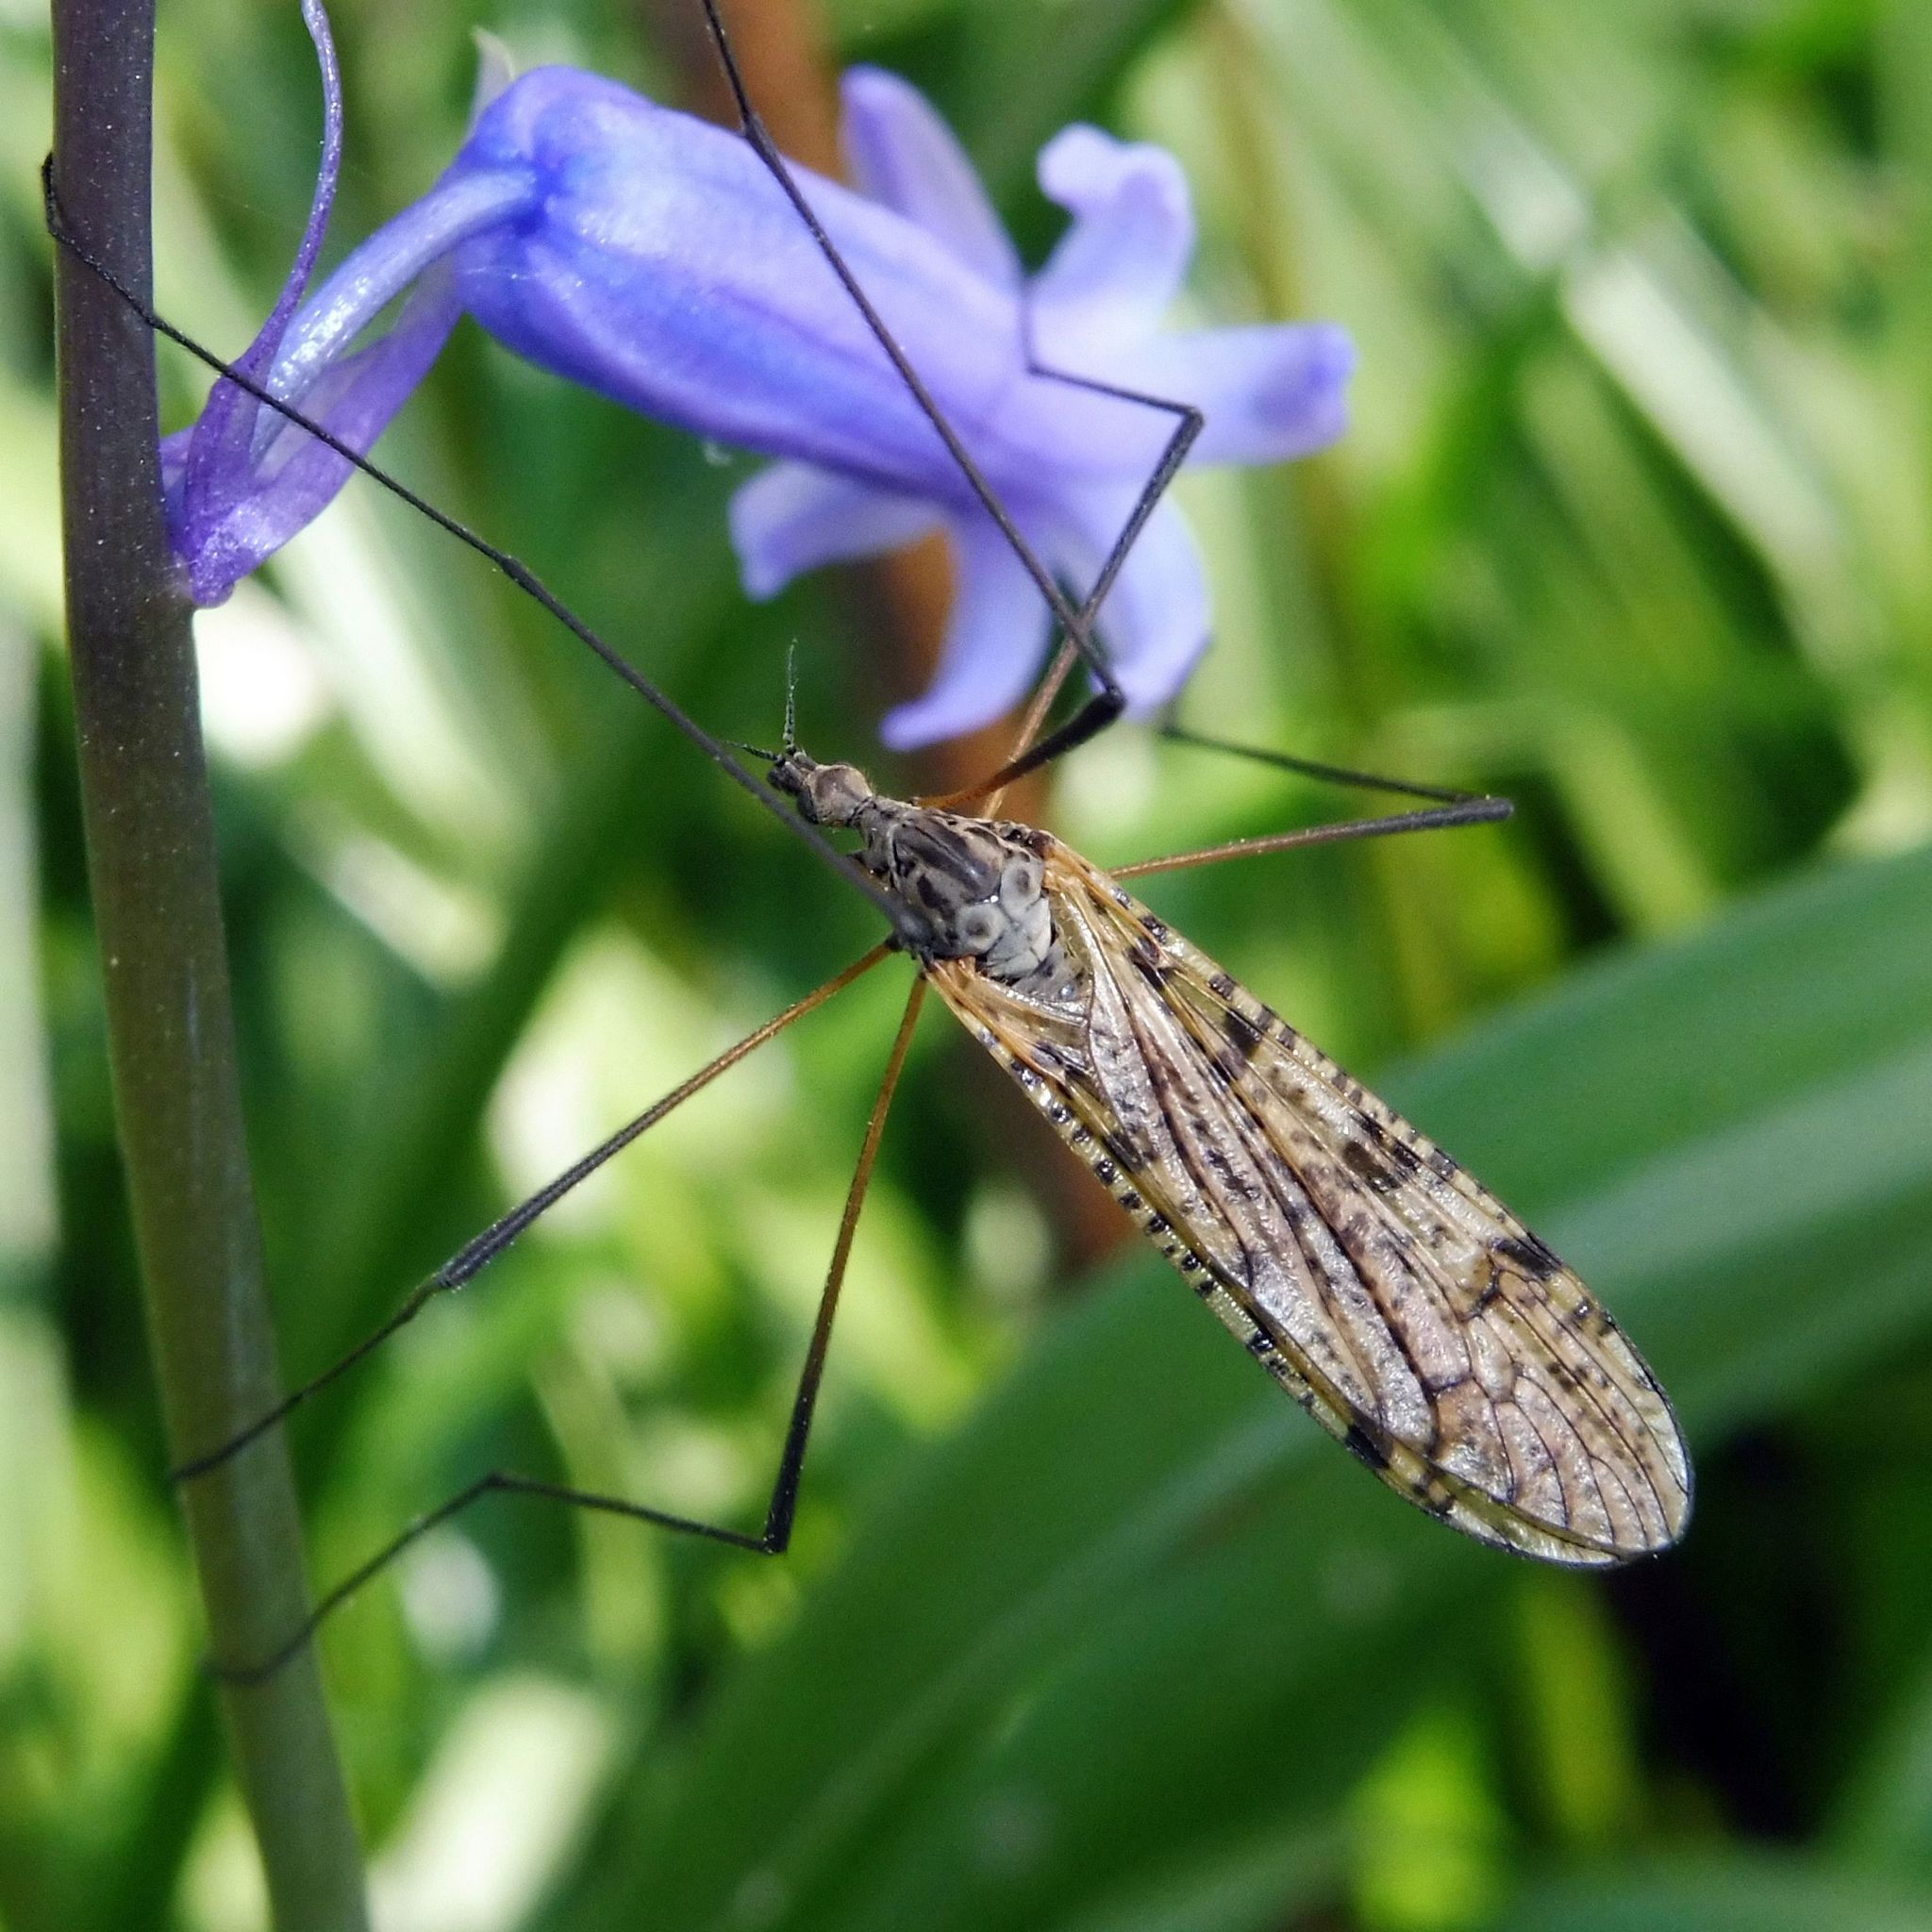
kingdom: Animalia
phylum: Arthropoda
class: Insecta
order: Diptera
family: Limoniidae
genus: Limnophila
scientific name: Limnophila schranki
